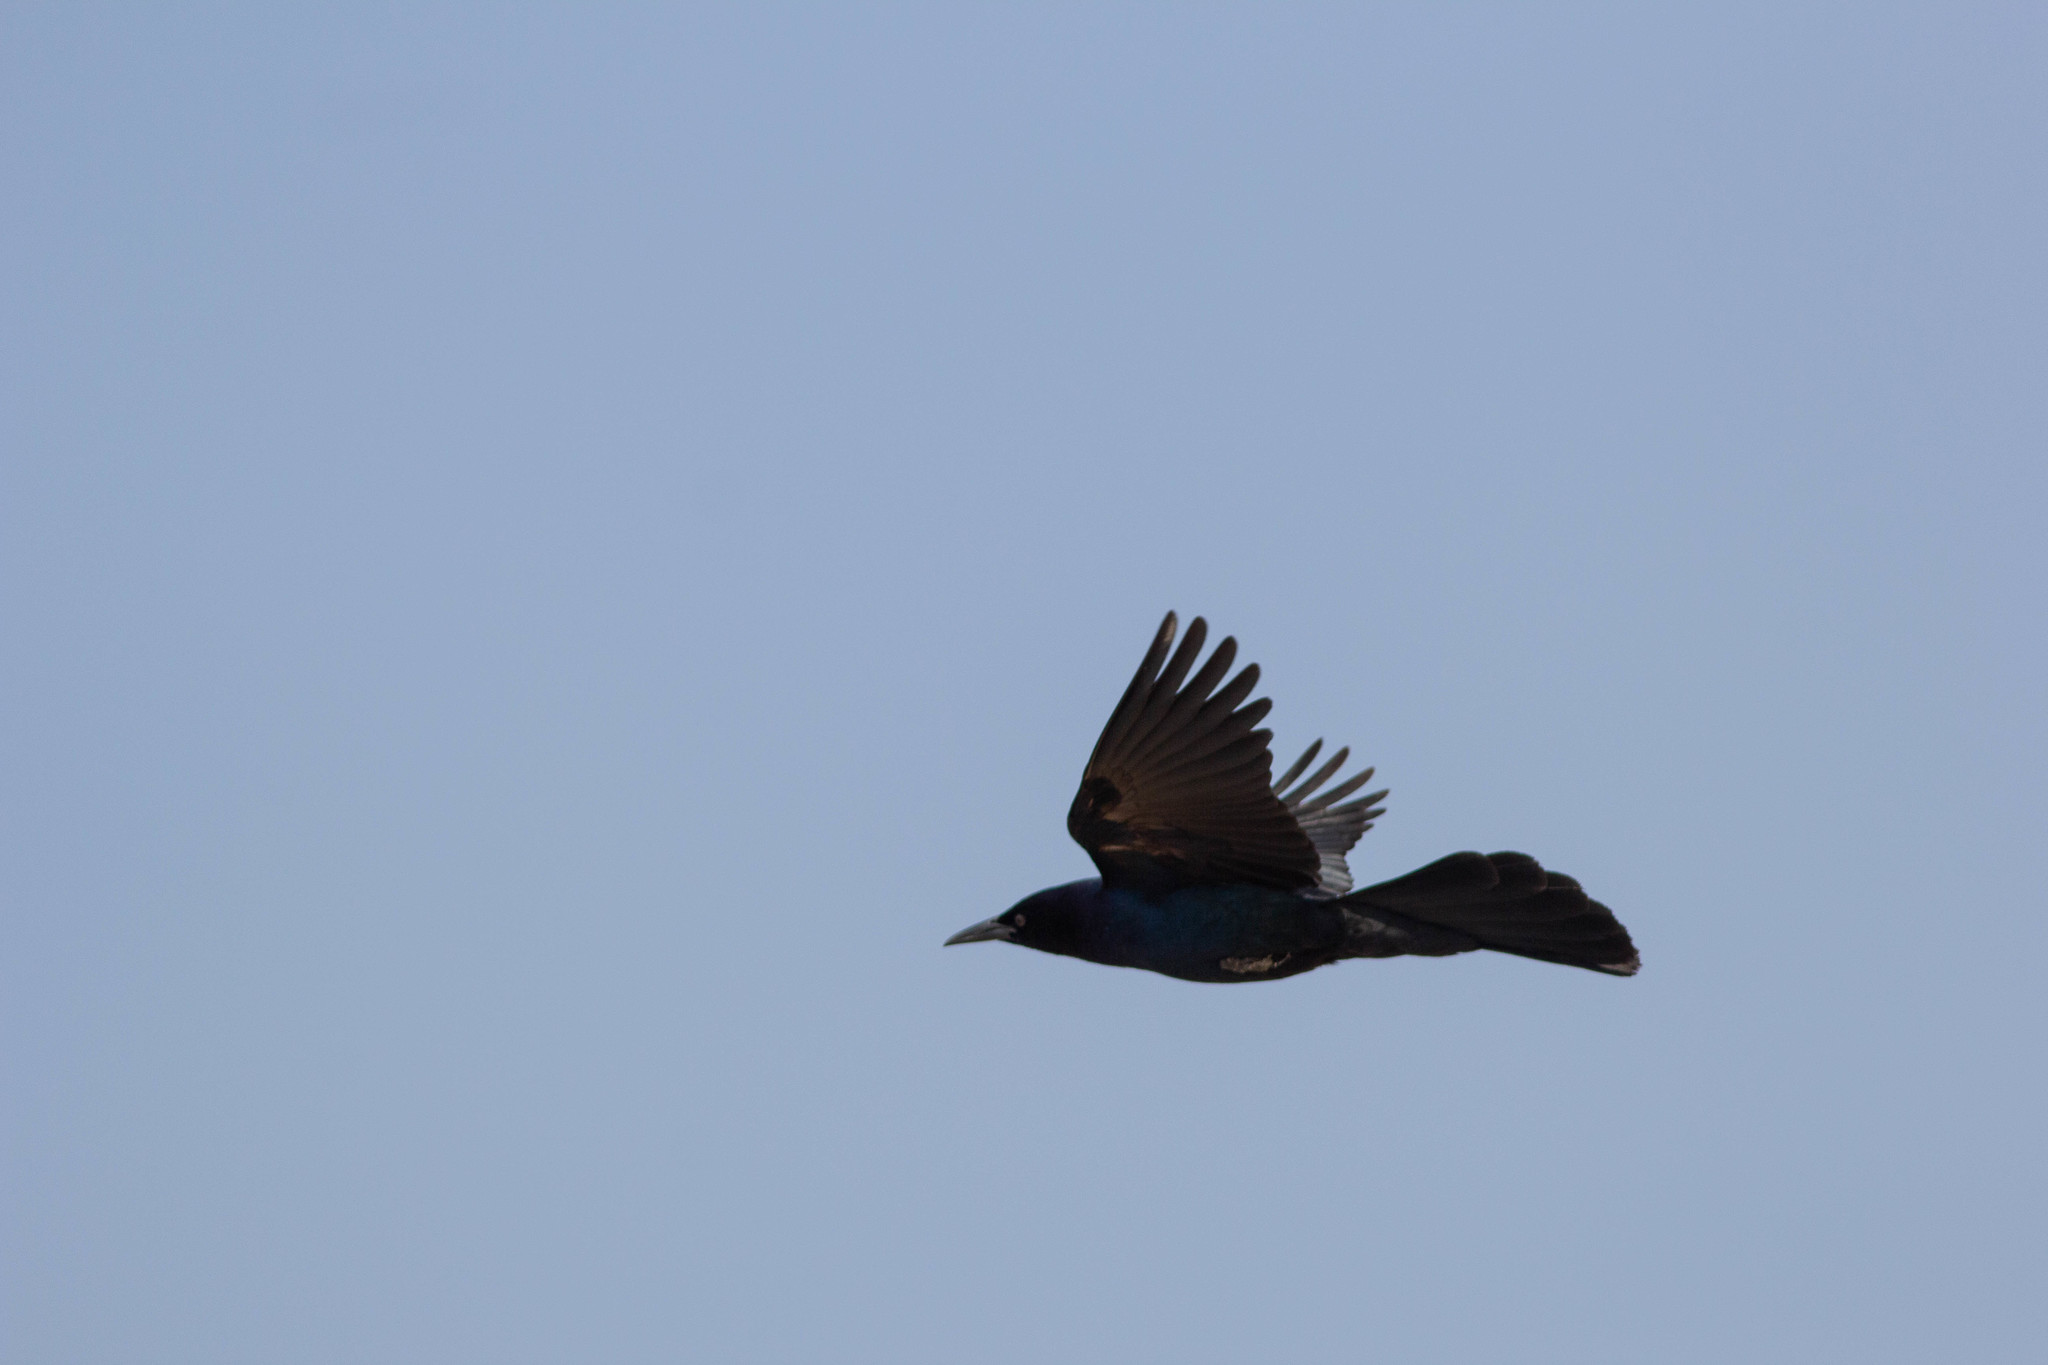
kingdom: Animalia
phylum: Chordata
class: Aves
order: Passeriformes
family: Icteridae
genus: Quiscalus
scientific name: Quiscalus major
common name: Boat-tailed grackle
